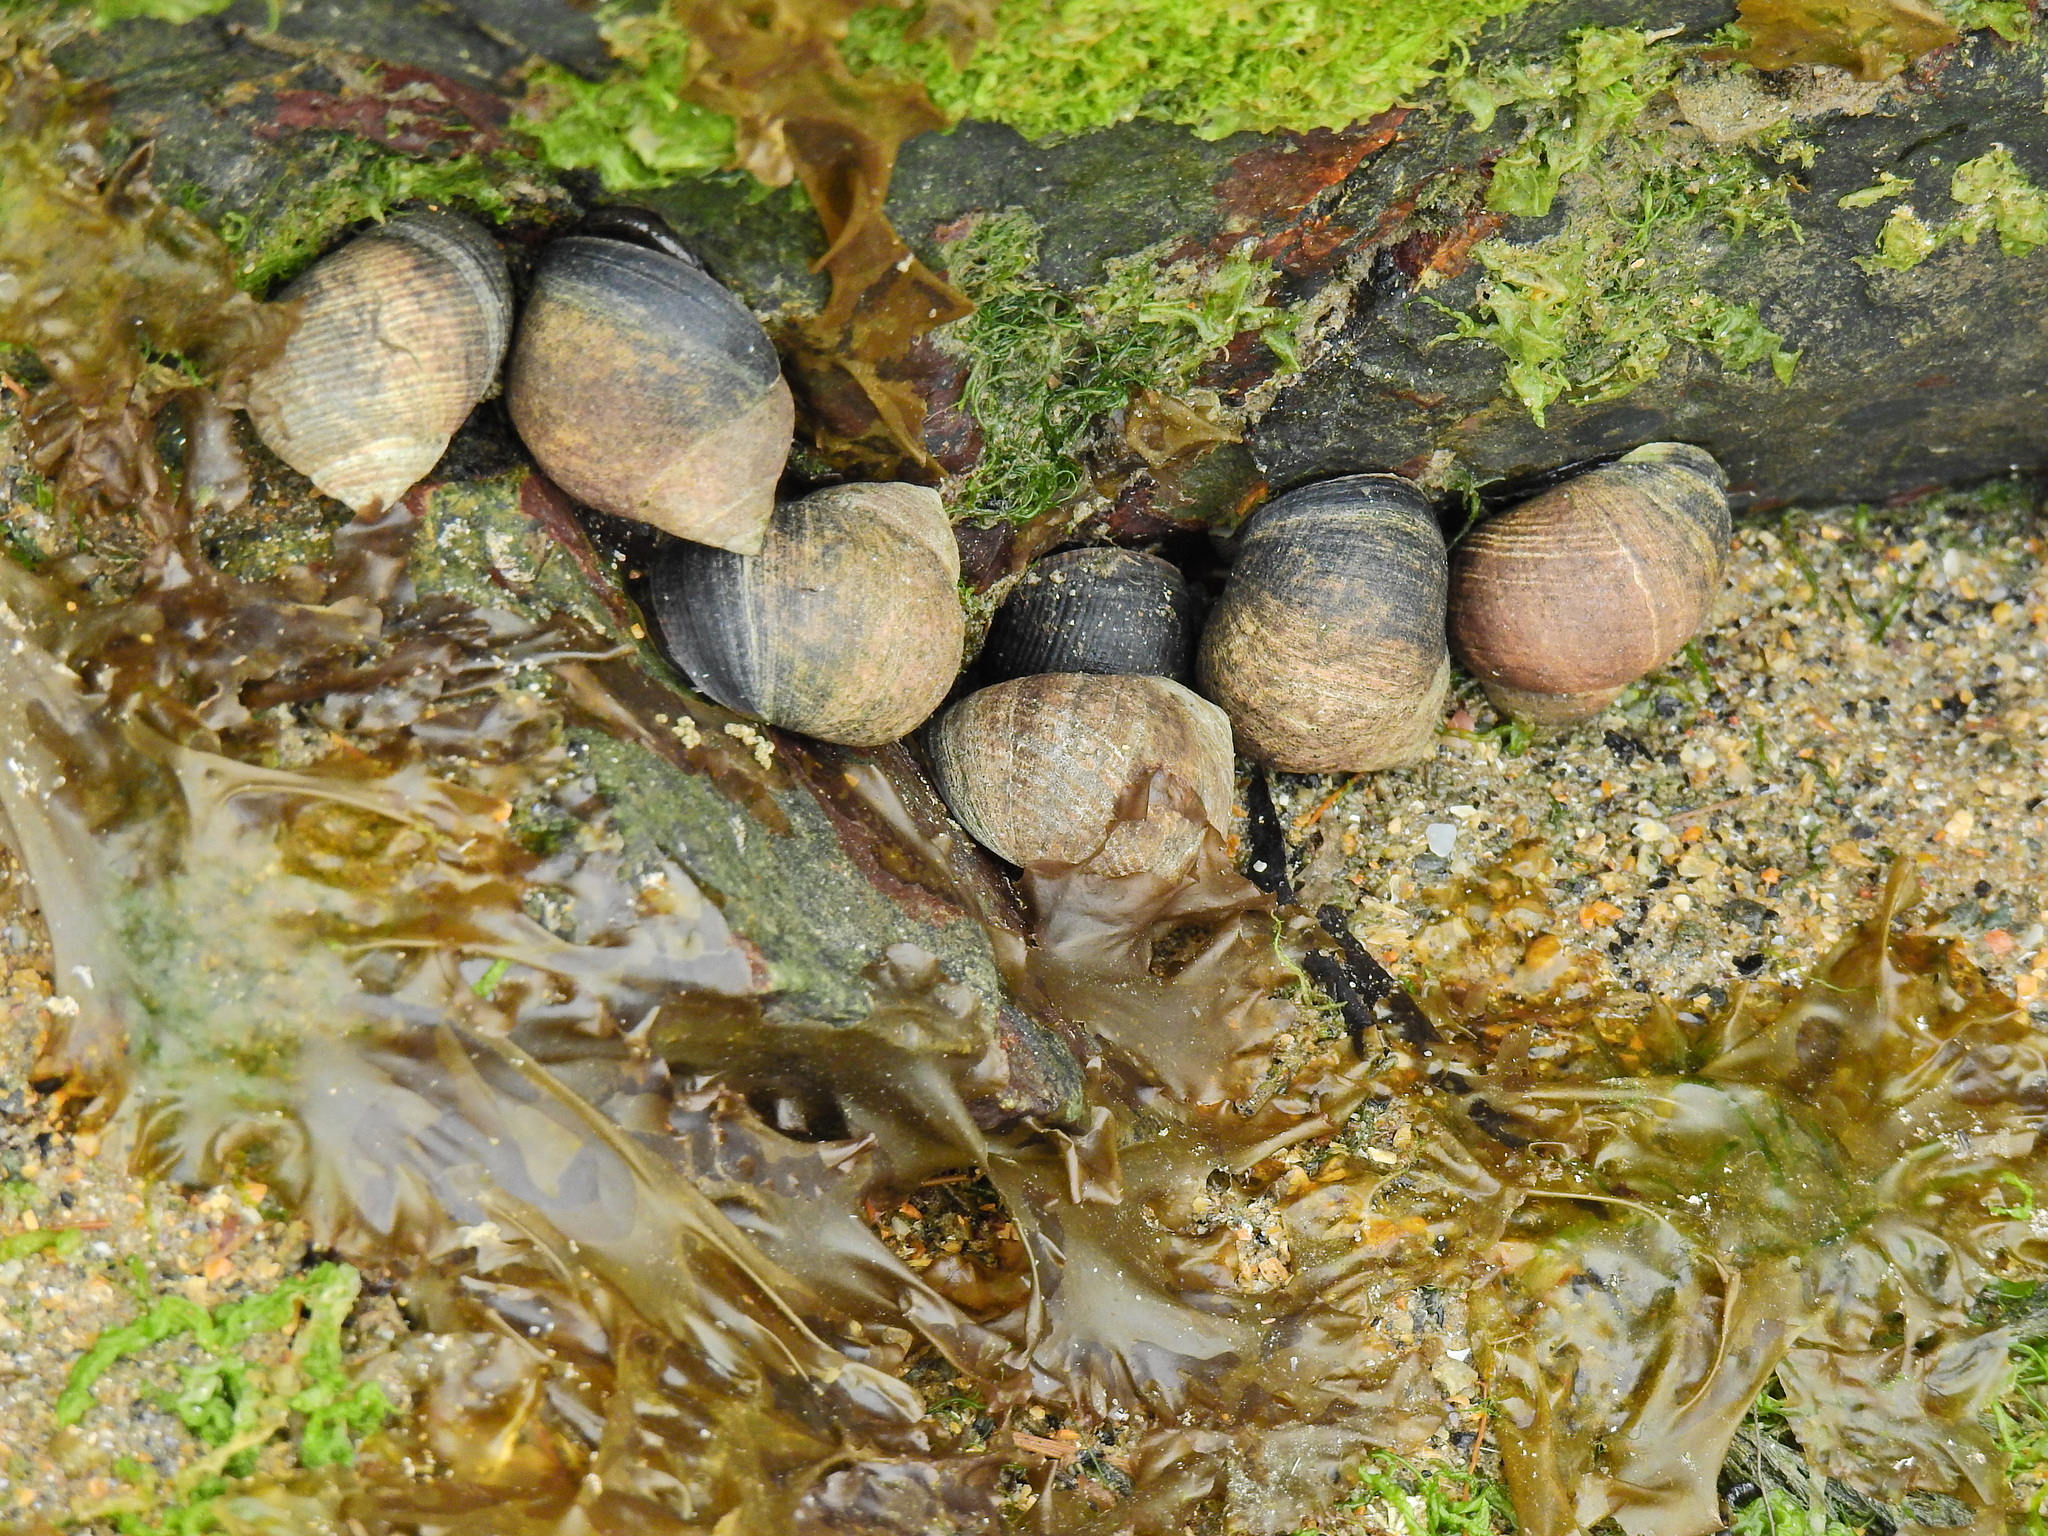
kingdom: Animalia
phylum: Mollusca
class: Gastropoda
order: Littorinimorpha
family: Littorinidae
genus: Littorina
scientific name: Littorina littorea
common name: Common periwinkle
